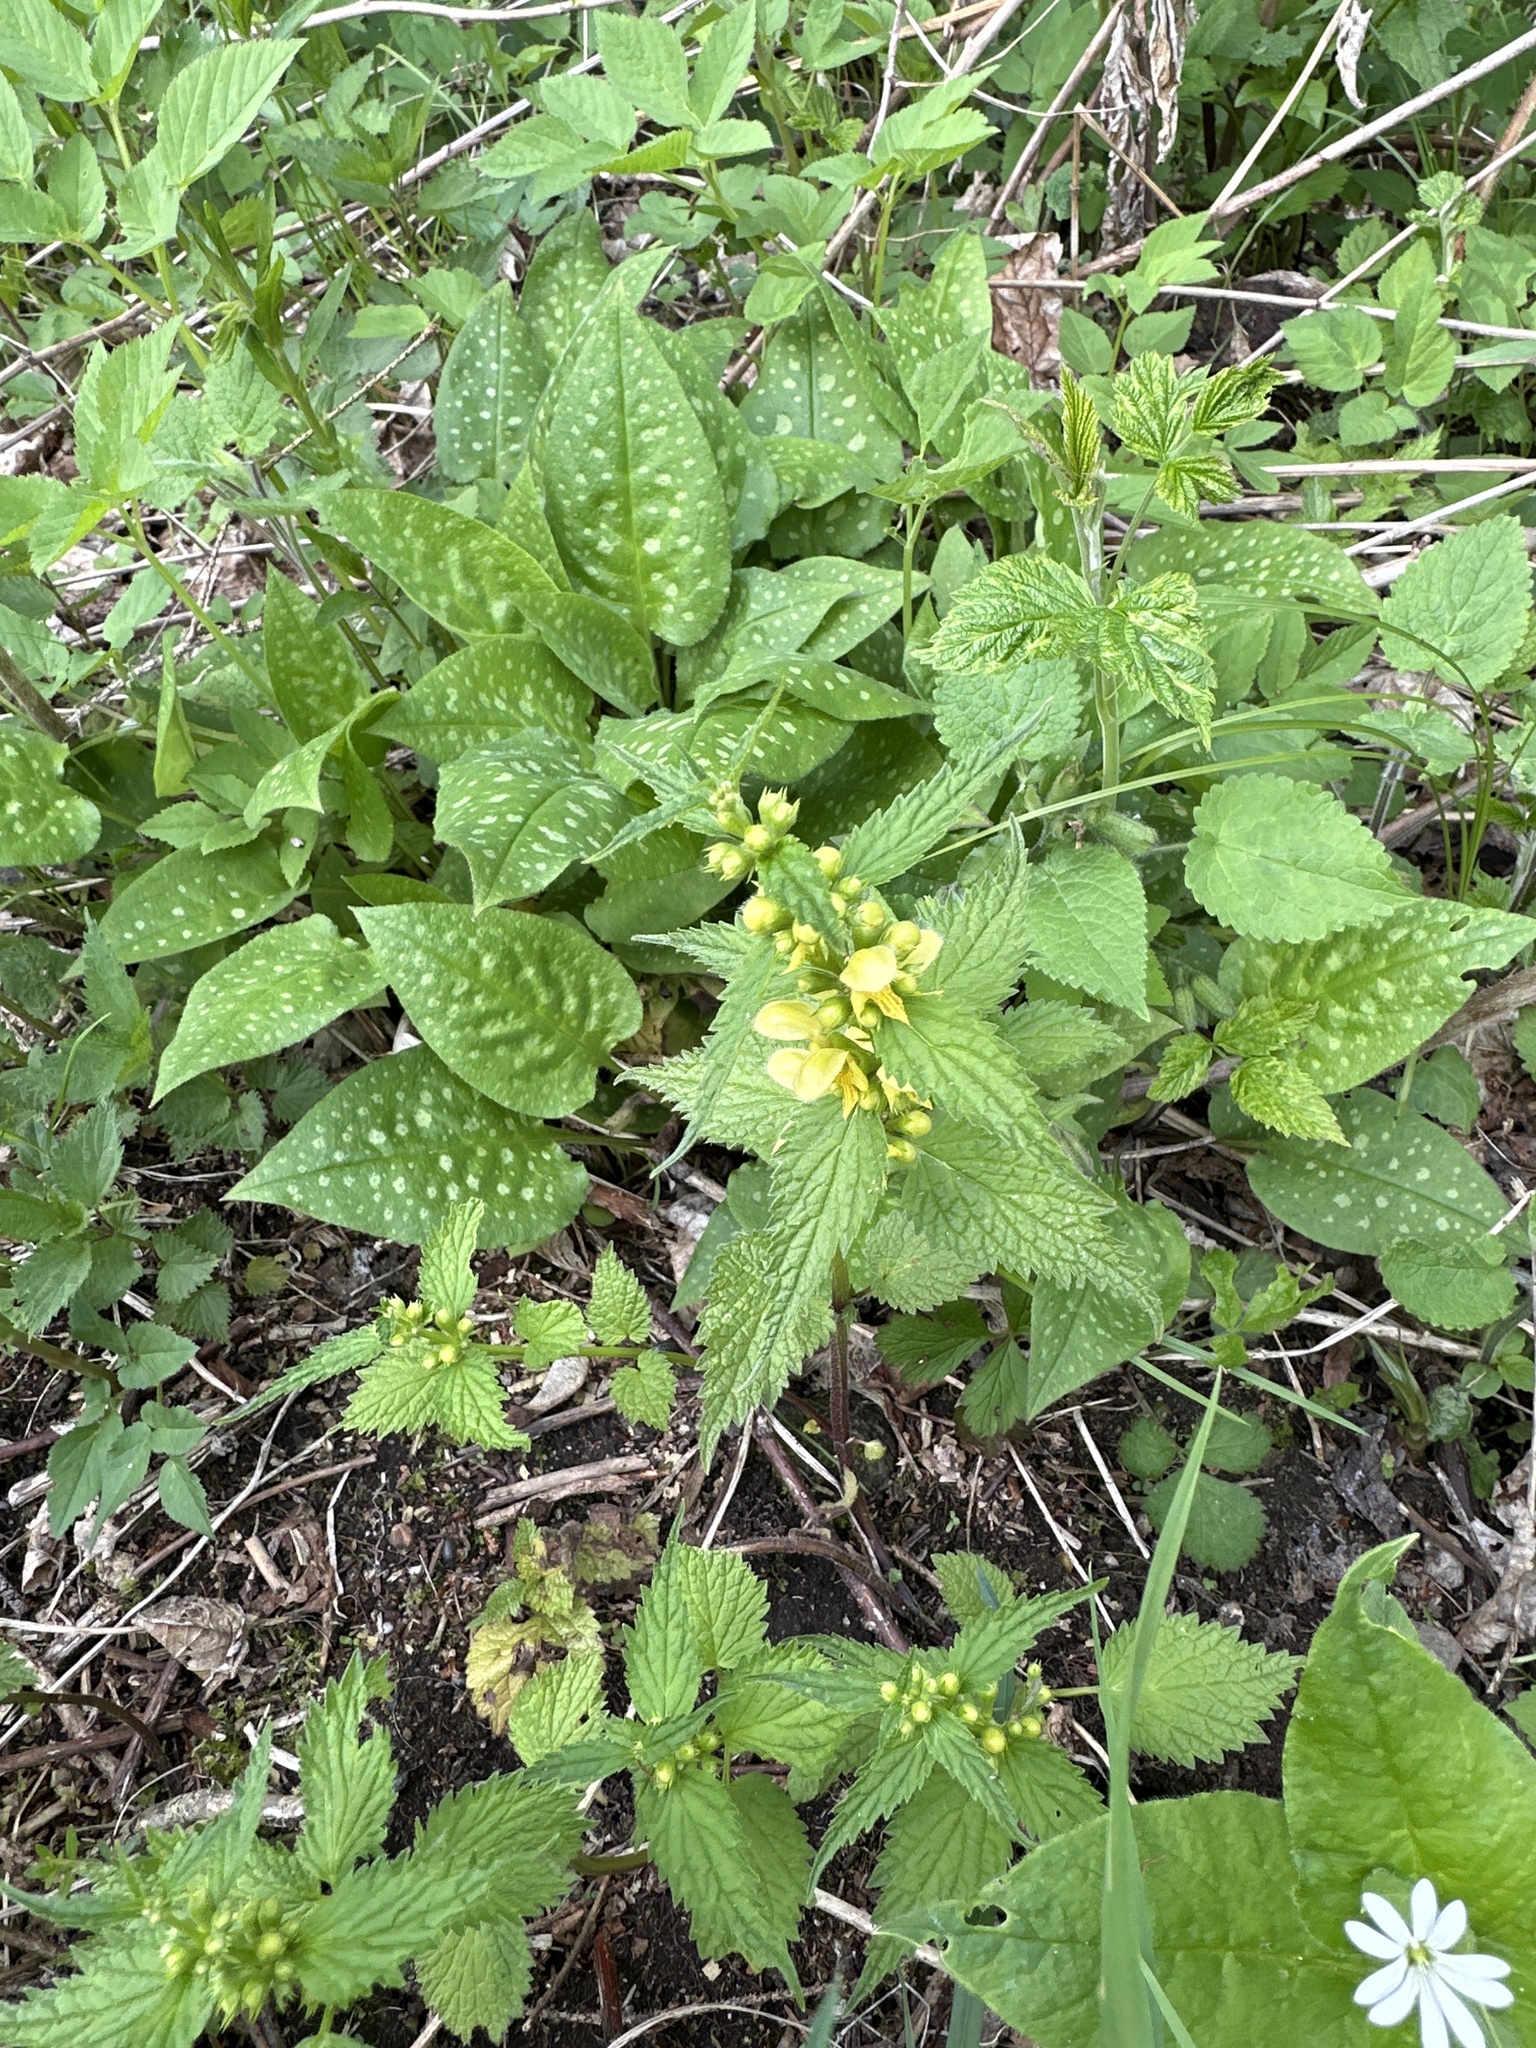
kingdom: Plantae
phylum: Tracheophyta
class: Magnoliopsida
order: Lamiales
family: Lamiaceae
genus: Lamium
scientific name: Lamium galeobdolon
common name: Yellow archangel
